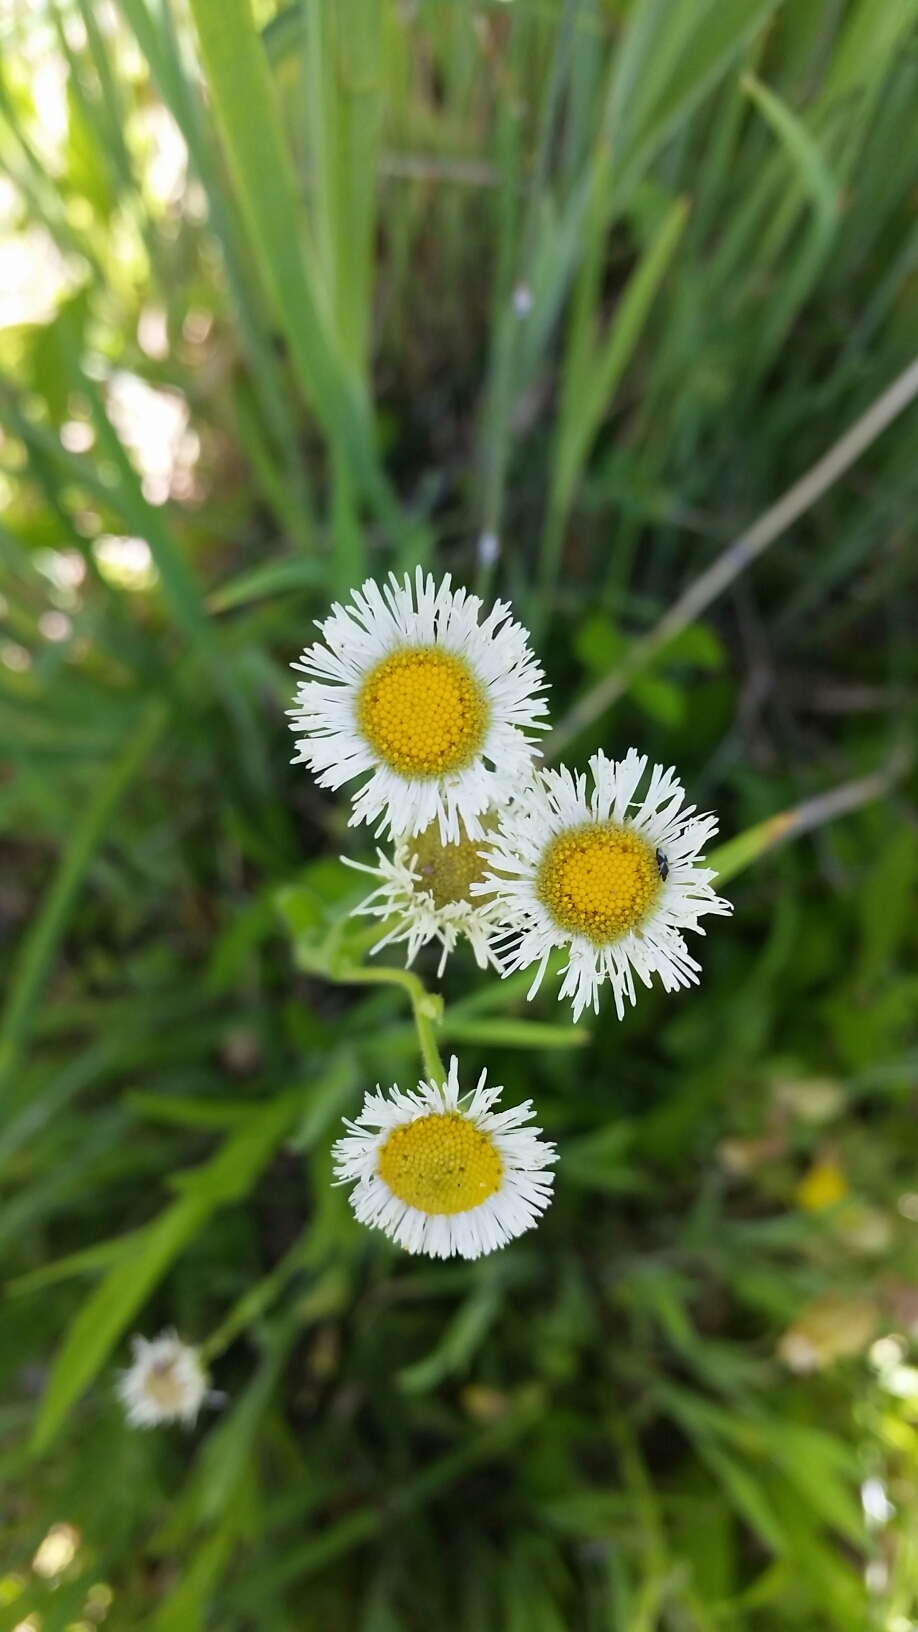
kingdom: Plantae
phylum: Tracheophyta
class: Magnoliopsida
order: Asterales
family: Asteraceae
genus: Erigeron
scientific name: Erigeron philadelphicus
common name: Robin's-plantain
